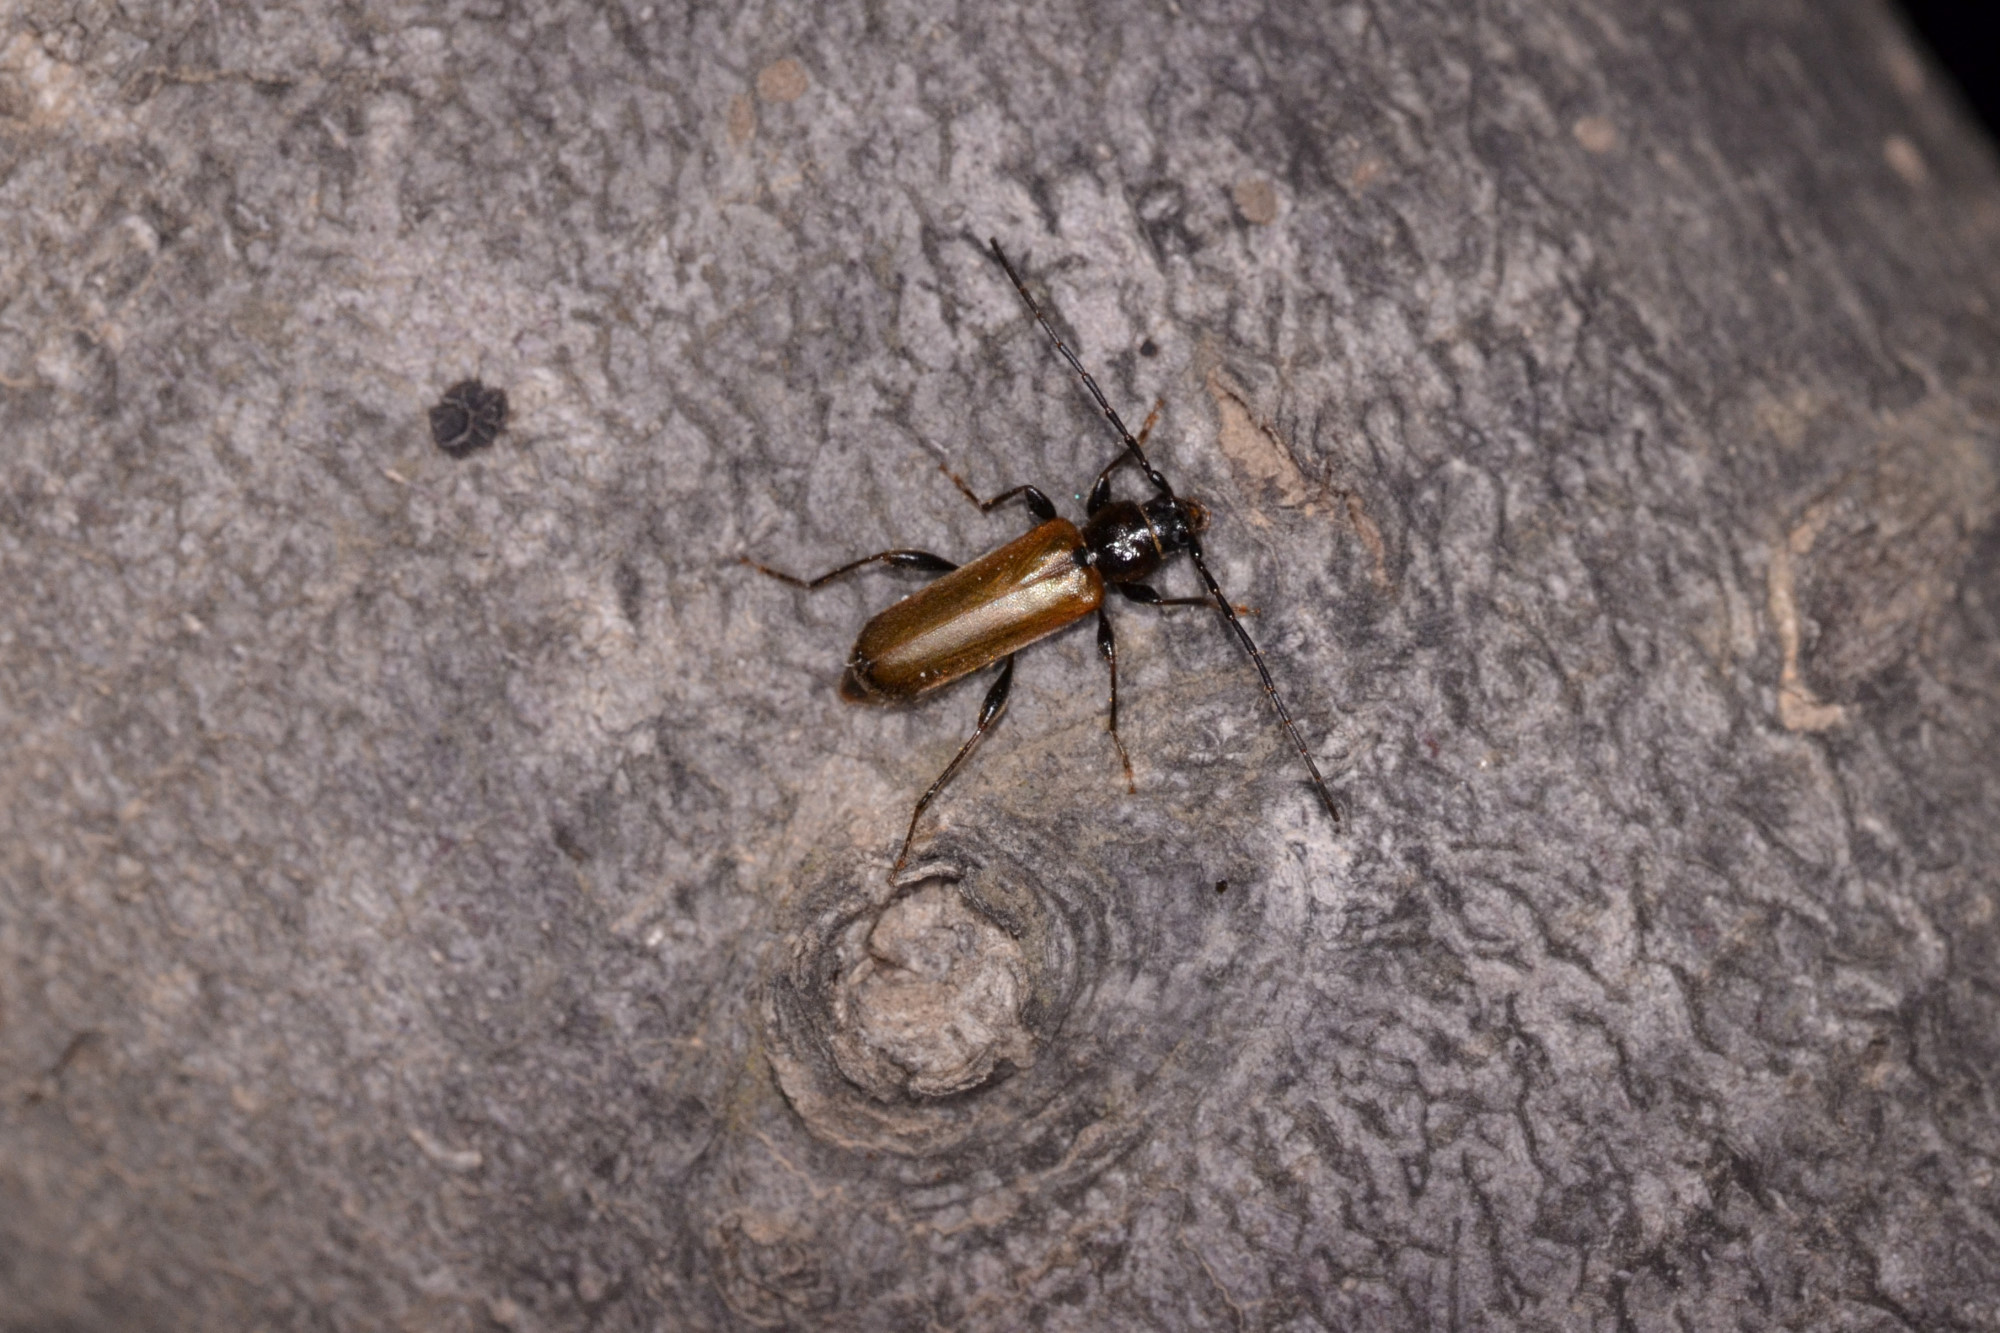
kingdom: Animalia
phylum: Arthropoda
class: Insecta
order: Coleoptera
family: Cerambycidae
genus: Phymatodes
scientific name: Phymatodes testaceus
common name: Long-horned beetle
